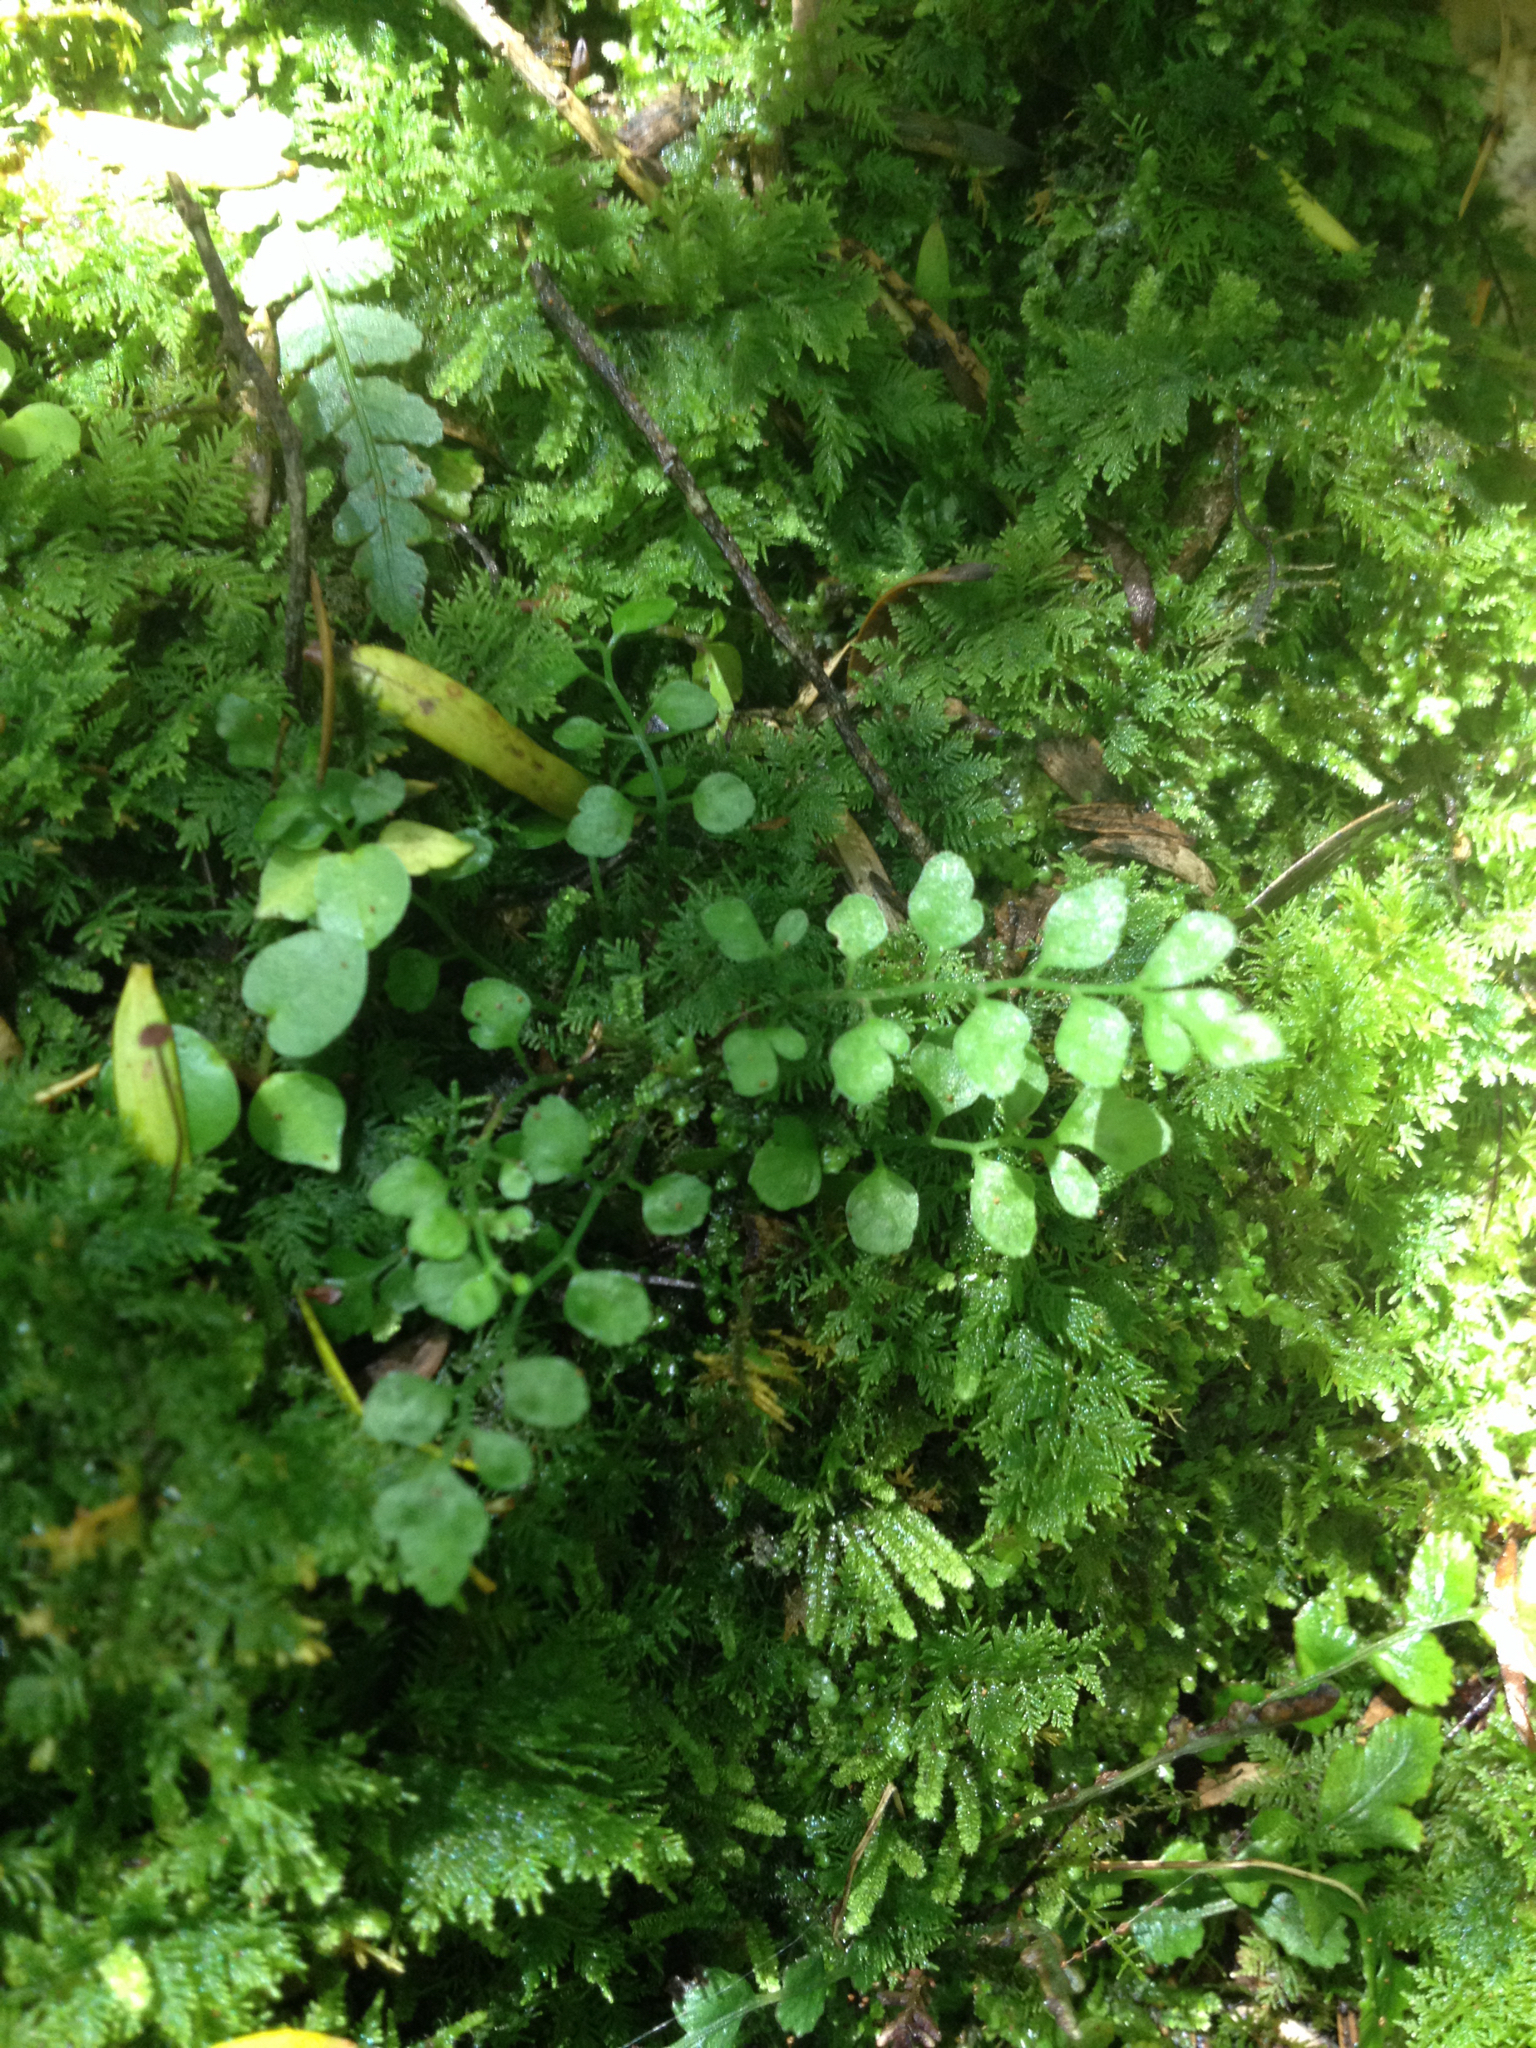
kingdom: Plantae
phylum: Tracheophyta
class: Polypodiopsida
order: Polypodiales
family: Aspleniaceae
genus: Asplenium
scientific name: Asplenium hookerianum
